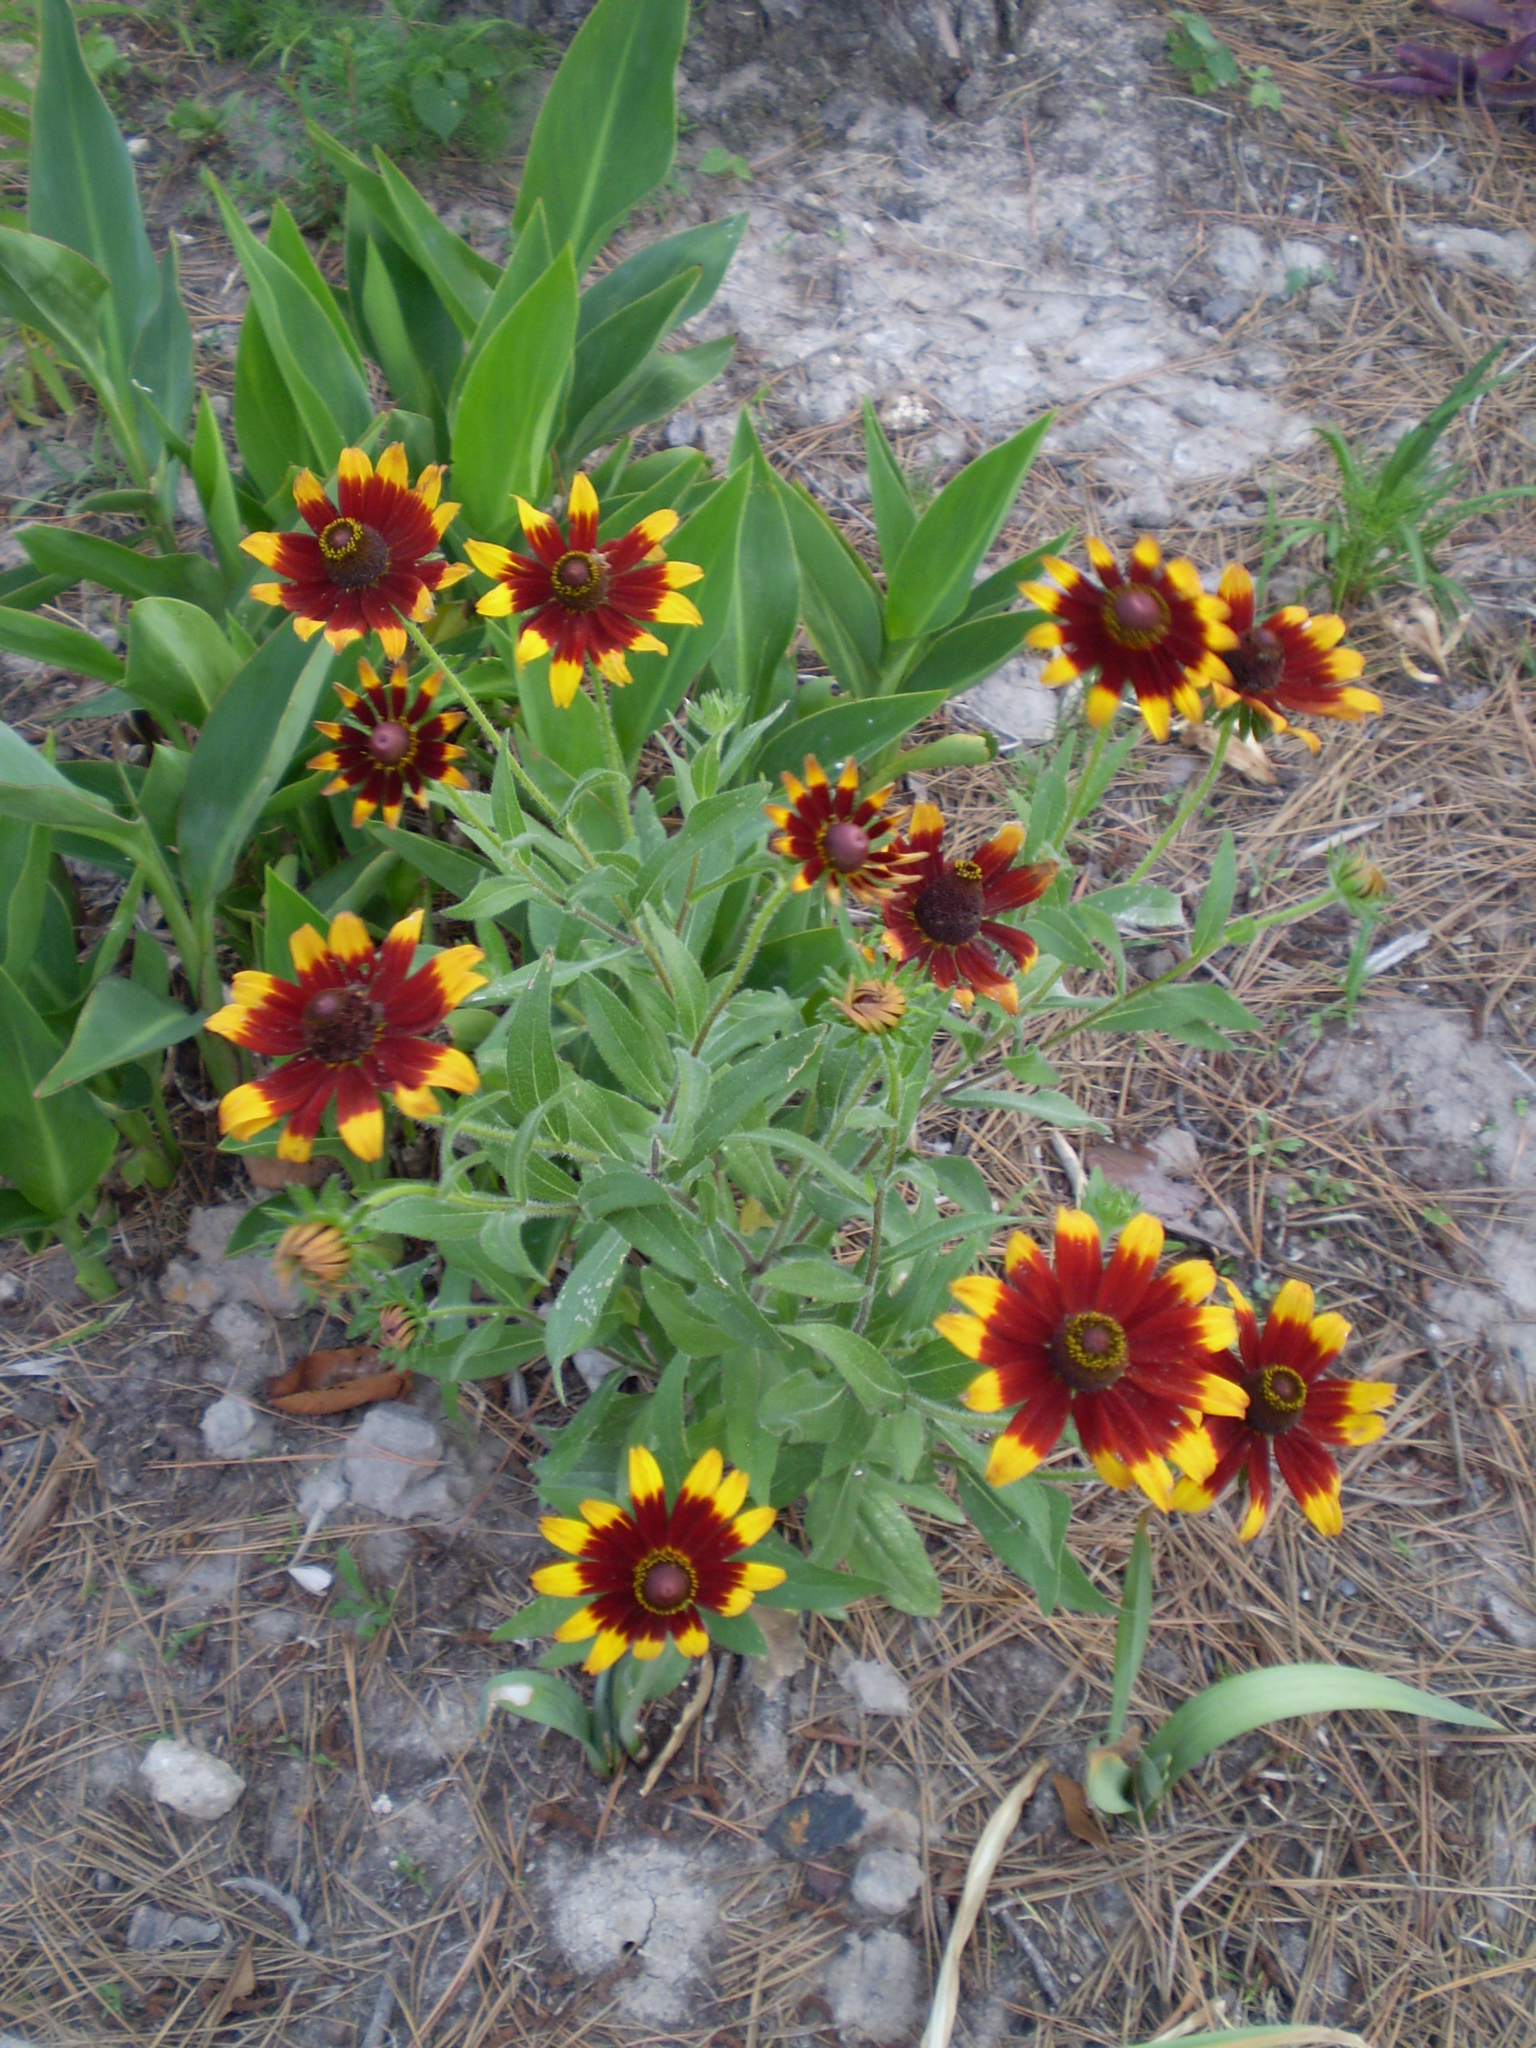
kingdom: Plantae
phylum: Tracheophyta
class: Magnoliopsida
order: Asterales
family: Asteraceae
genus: Gaillardia
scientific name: Gaillardia pulchella
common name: Firewheel
